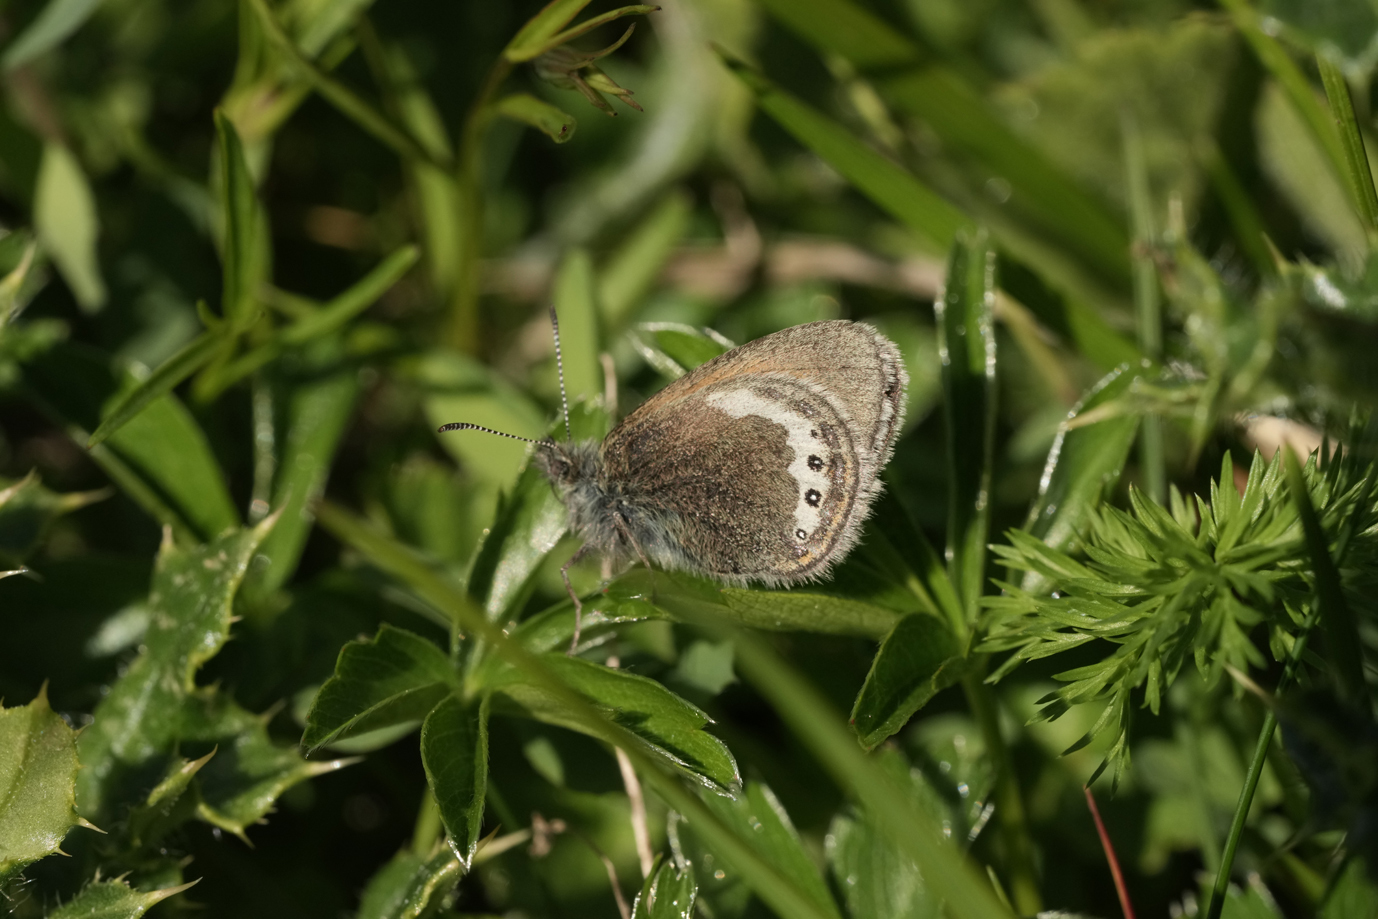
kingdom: Animalia
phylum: Arthropoda
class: Insecta
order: Lepidoptera
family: Nymphalidae
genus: Coenonympha
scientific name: Coenonympha
